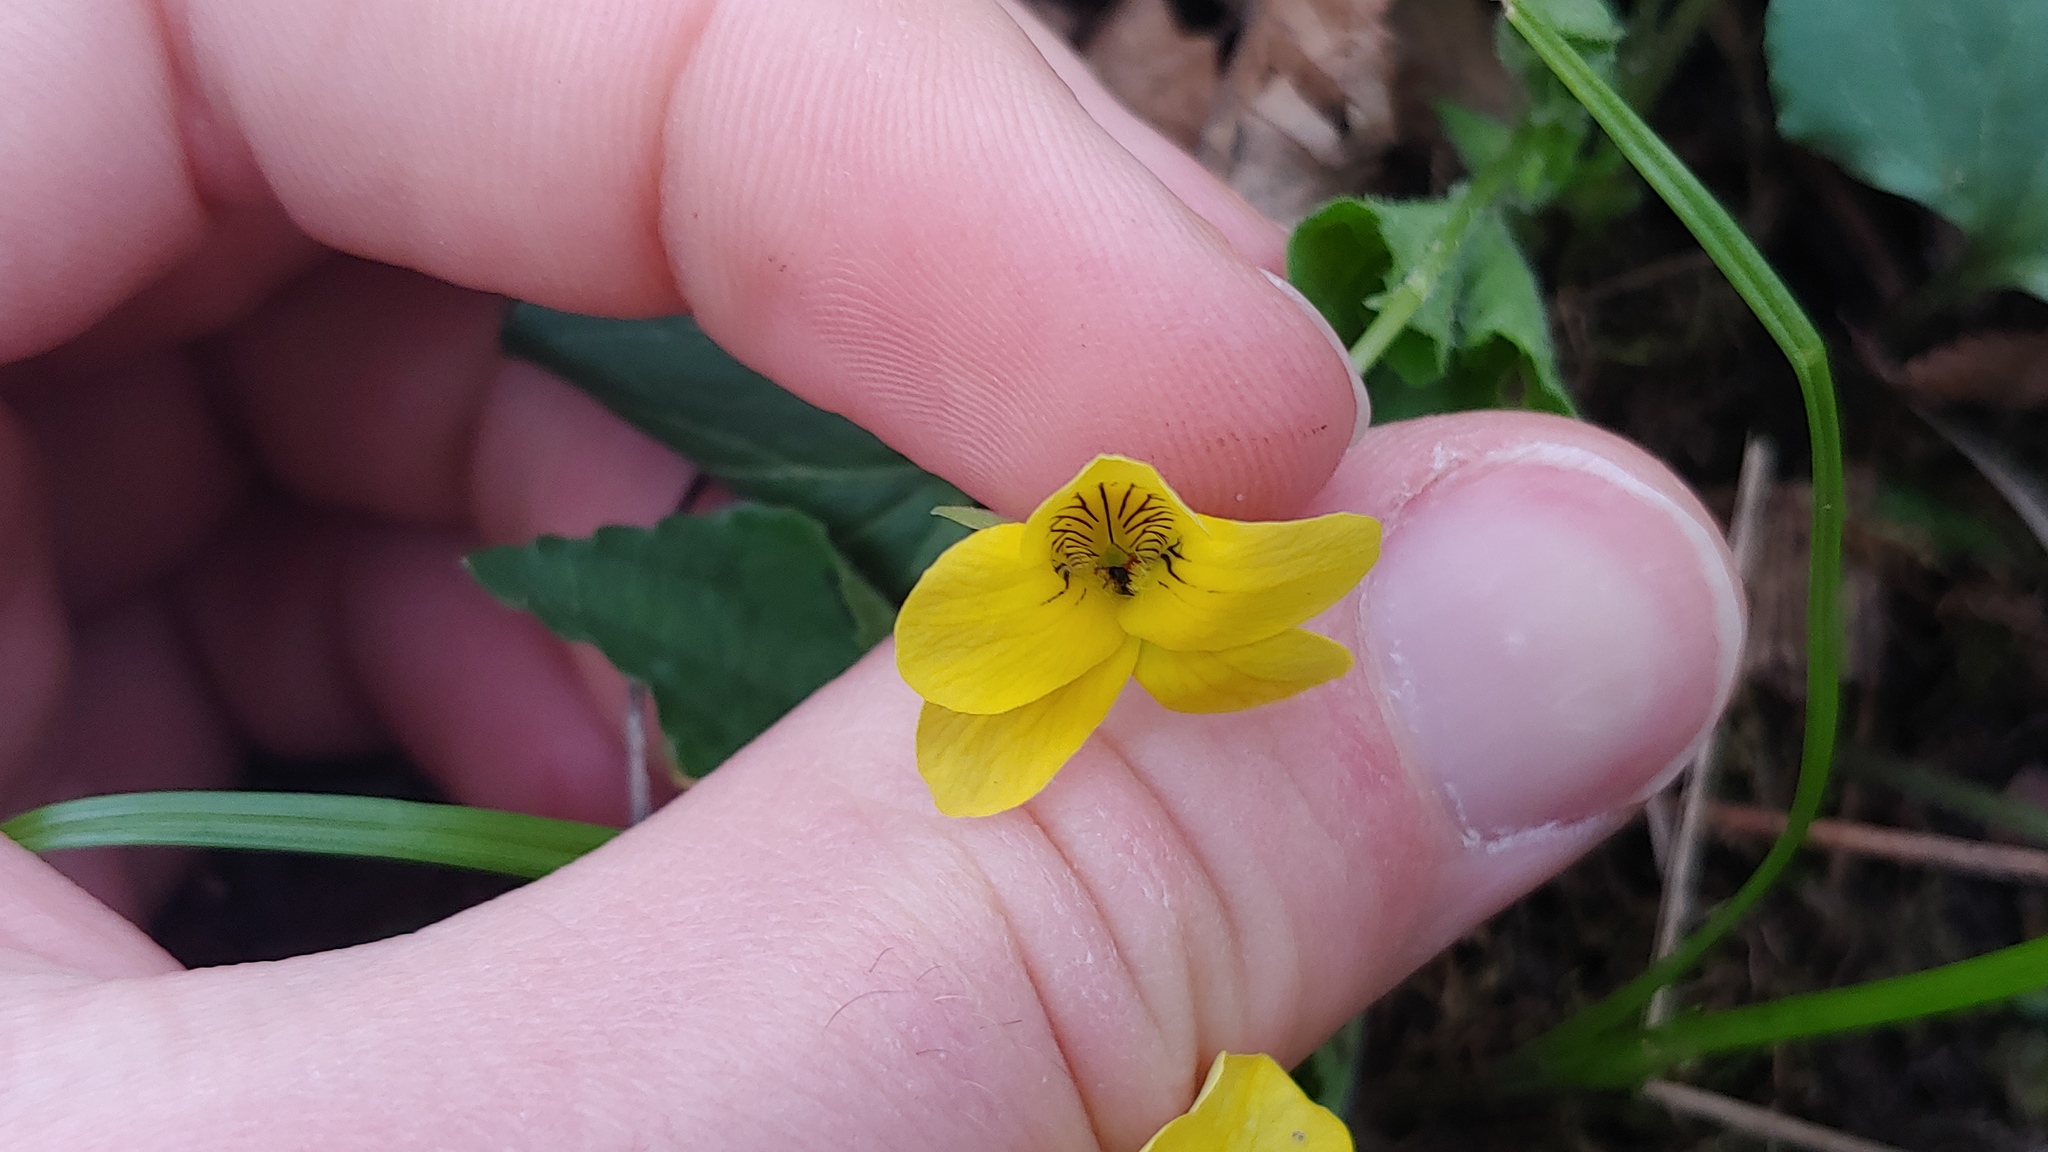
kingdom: Plantae
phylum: Tracheophyta
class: Magnoliopsida
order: Malpighiales
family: Violaceae
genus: Viola
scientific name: Viola eriocarpa
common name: Smooth yellow violet
